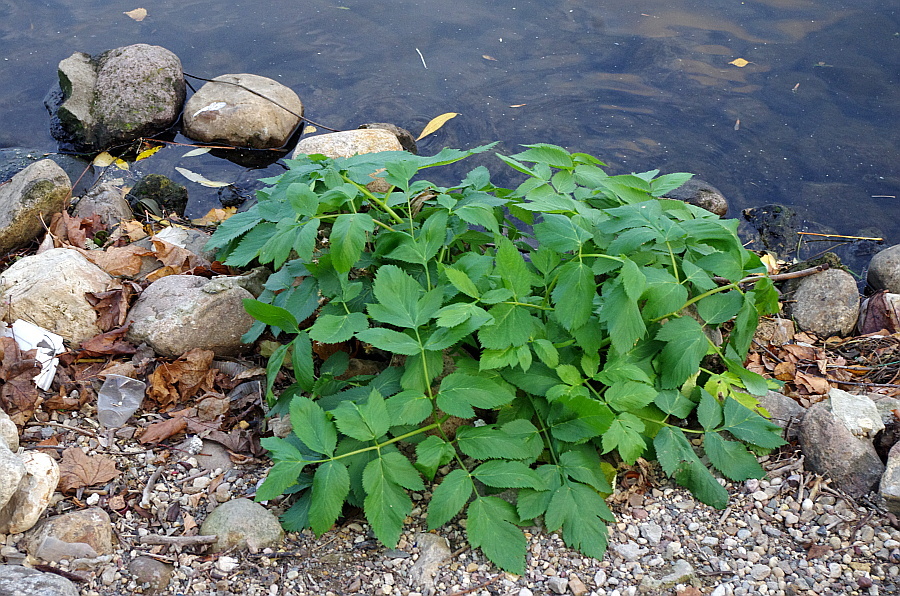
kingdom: Plantae
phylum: Tracheophyta
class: Magnoliopsida
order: Apiales
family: Apiaceae
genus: Angelica
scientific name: Angelica archangelica
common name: Garden angelica
